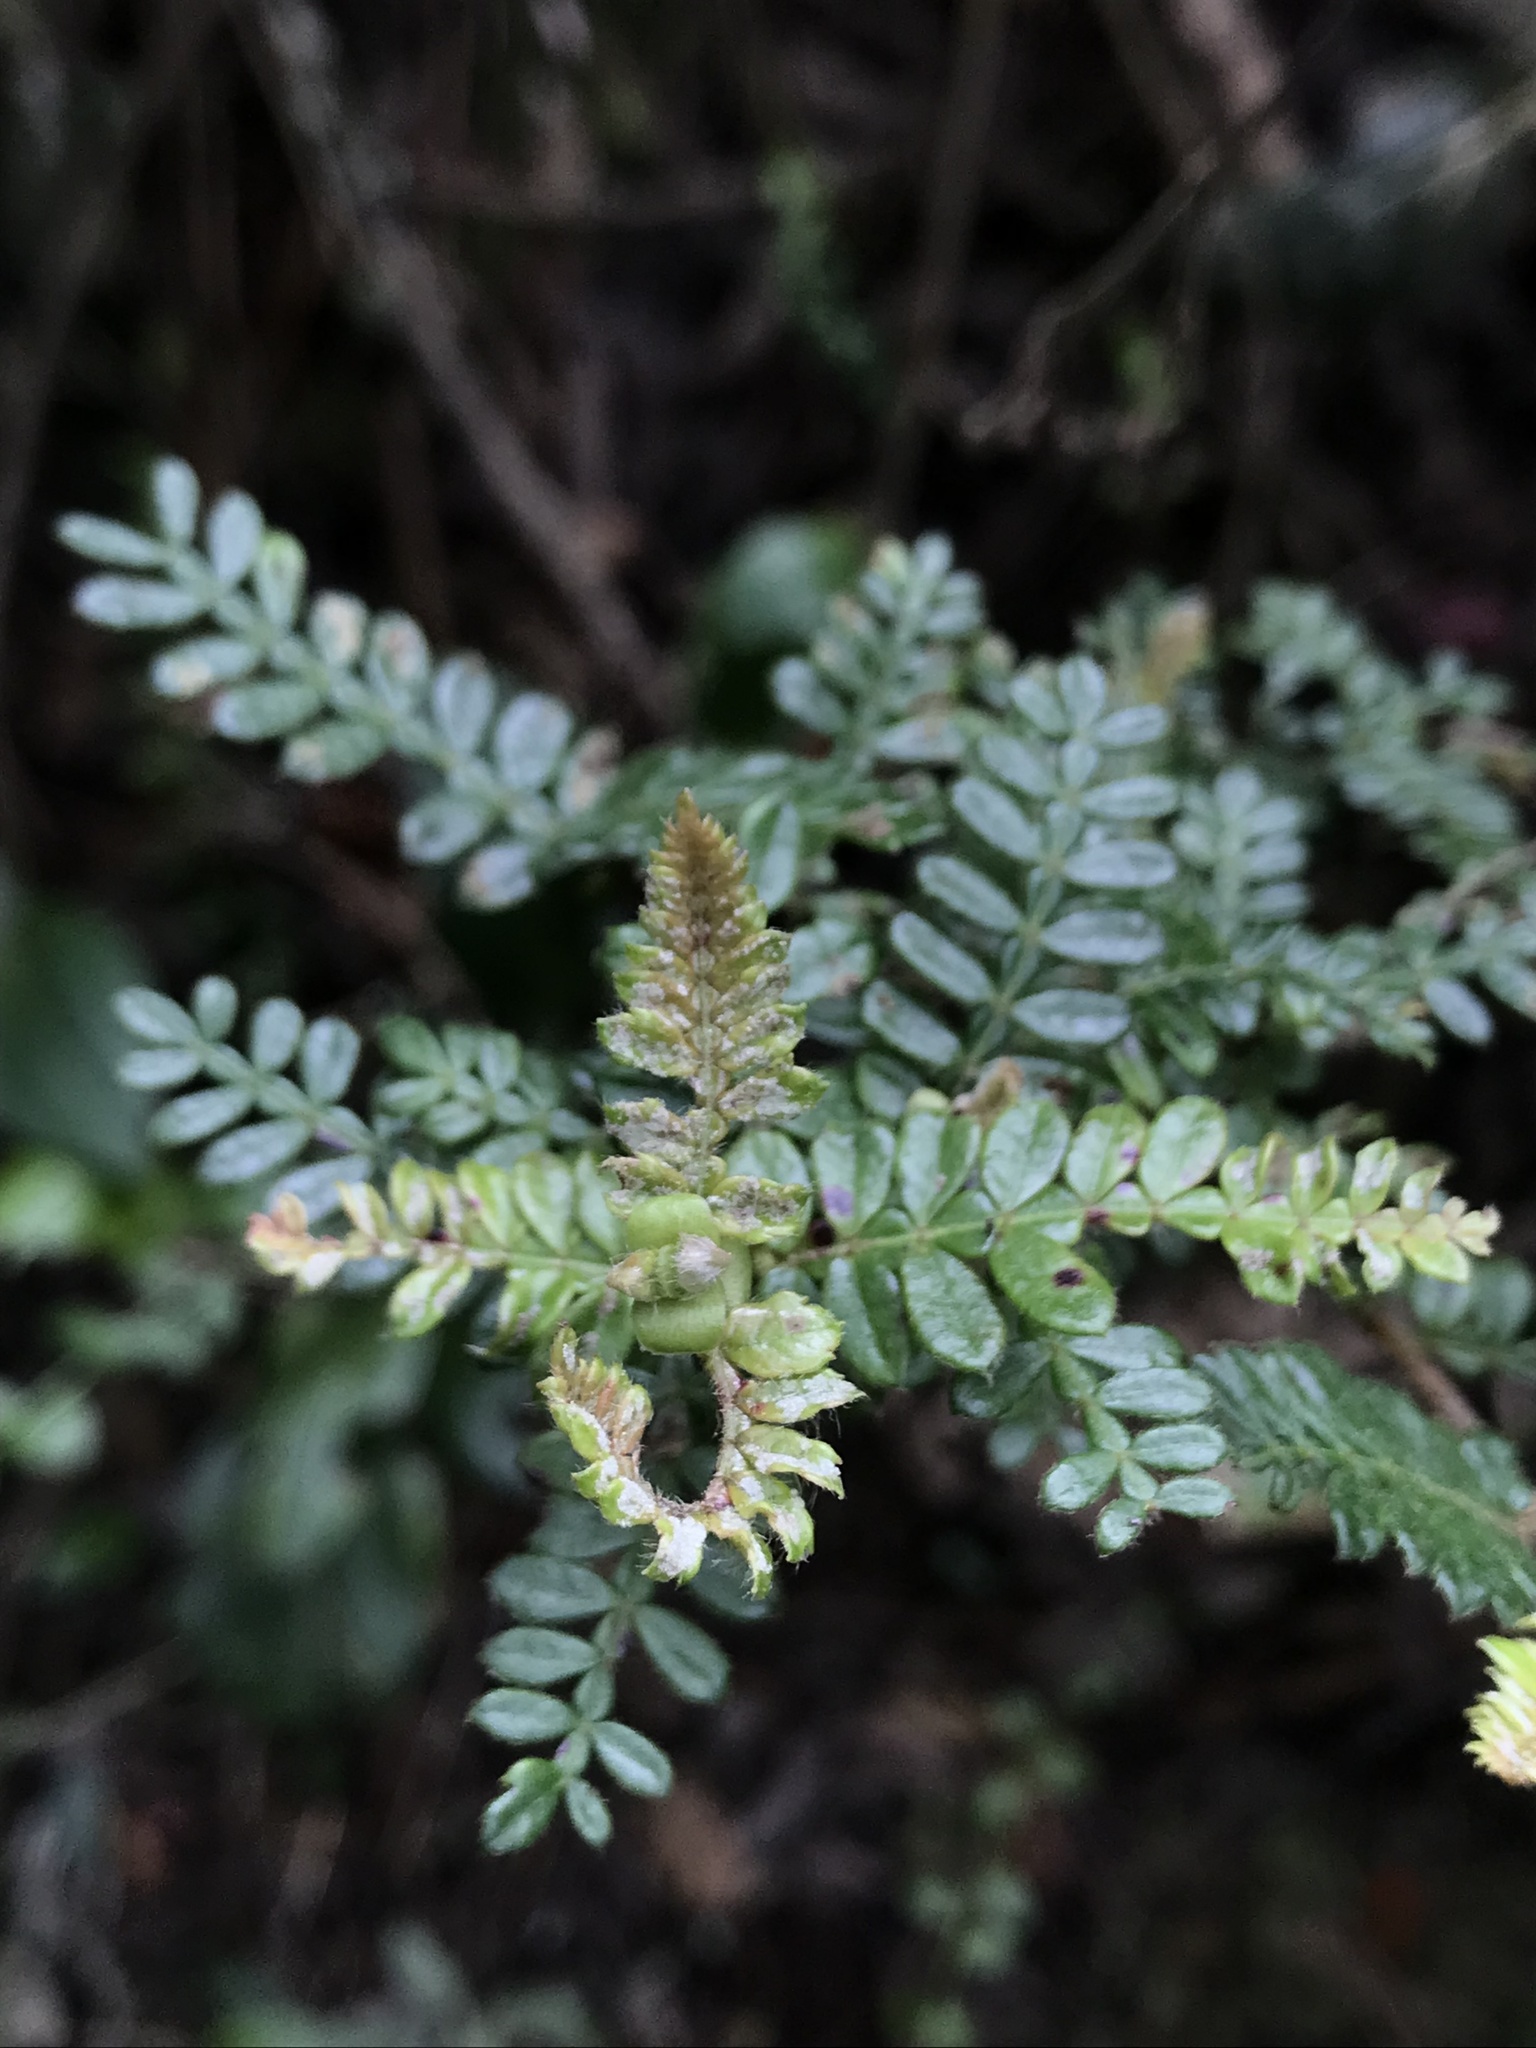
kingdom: Plantae
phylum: Tracheophyta
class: Magnoliopsida
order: Oxalidales
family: Cunoniaceae
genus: Weinmannia
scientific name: Weinmannia tomentosa
